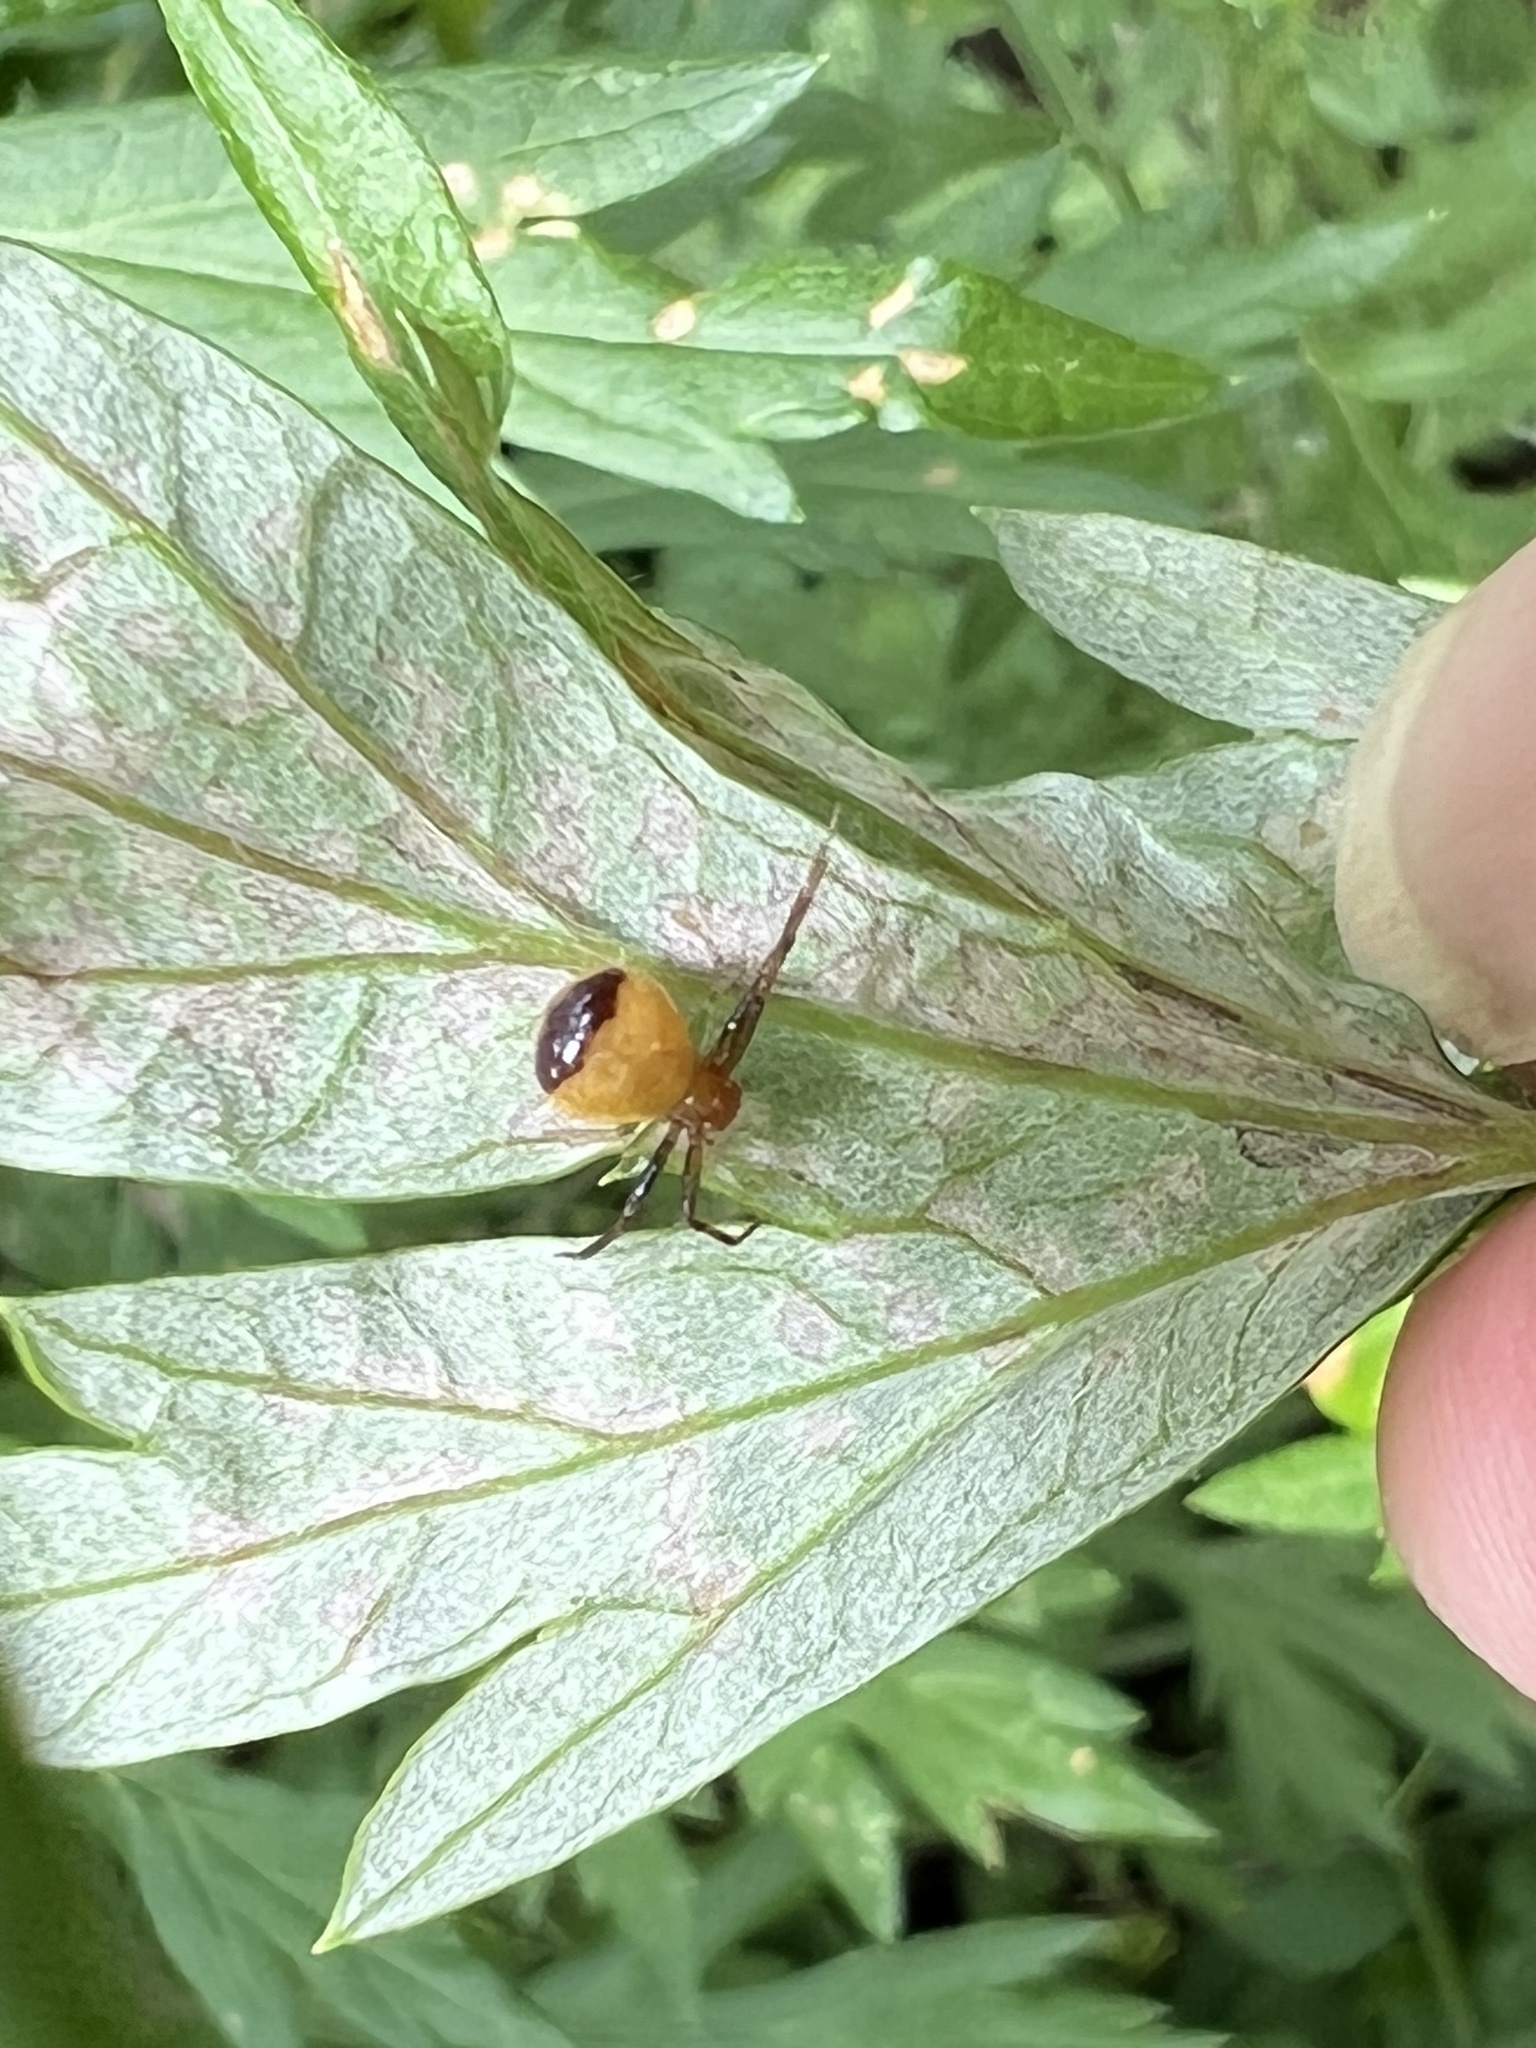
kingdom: Animalia
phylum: Arthropoda
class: Arachnida
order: Araneae
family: Thomisidae
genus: Synema
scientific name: Synema parvulum
